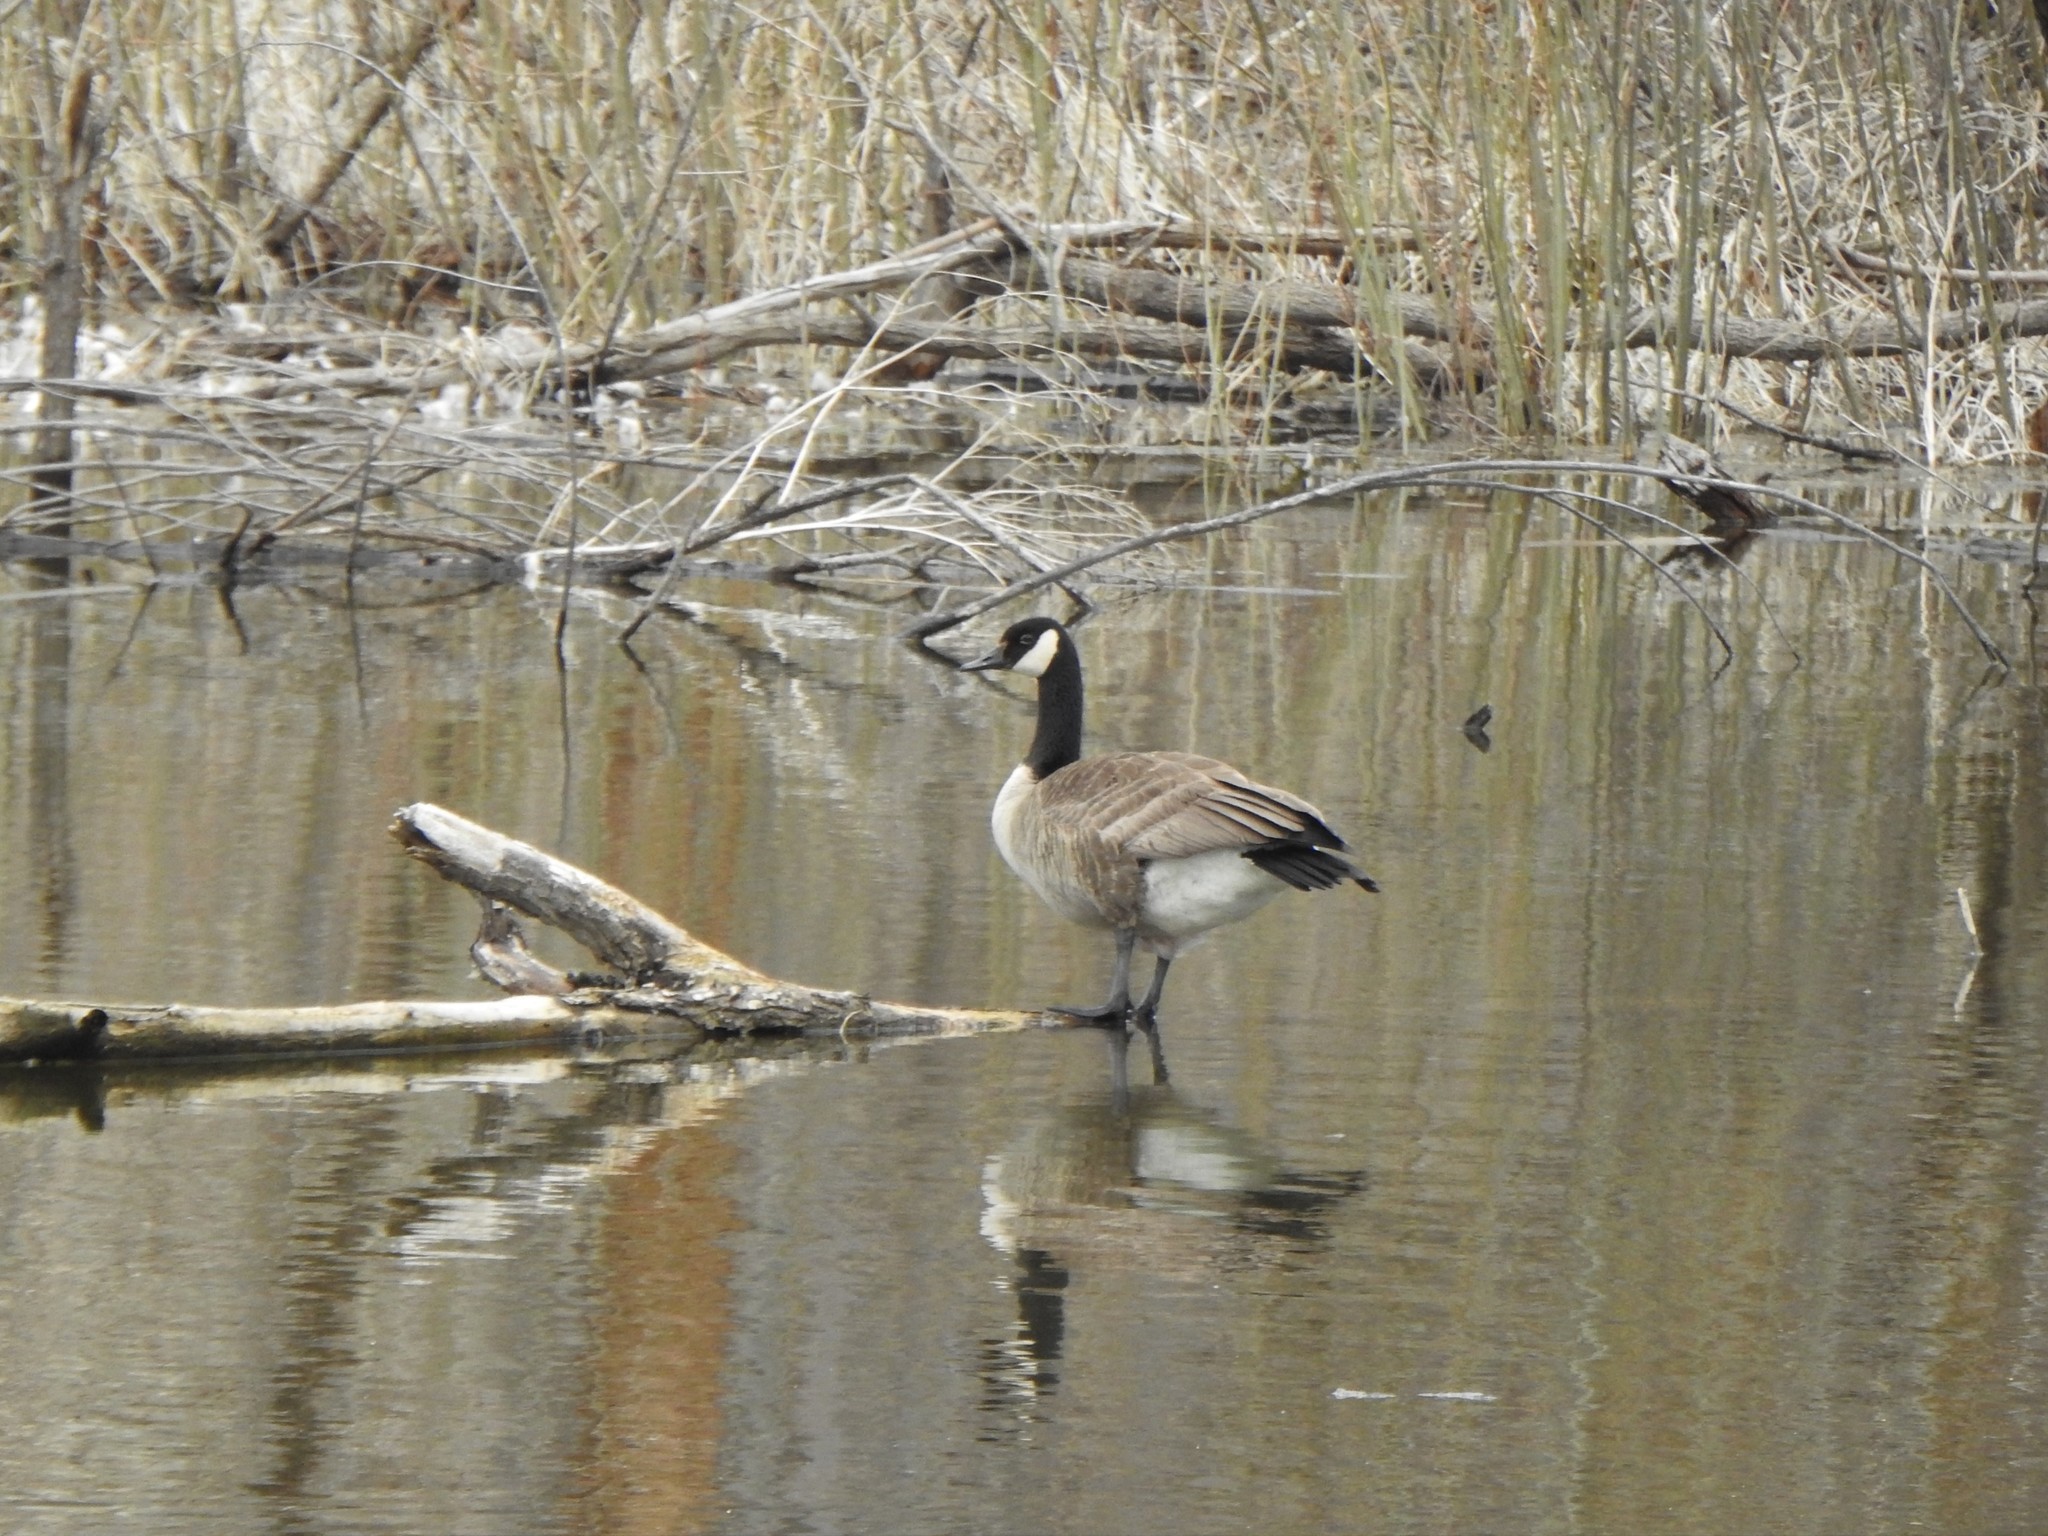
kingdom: Animalia
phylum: Chordata
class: Aves
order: Anseriformes
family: Anatidae
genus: Branta
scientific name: Branta canadensis
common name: Canada goose
